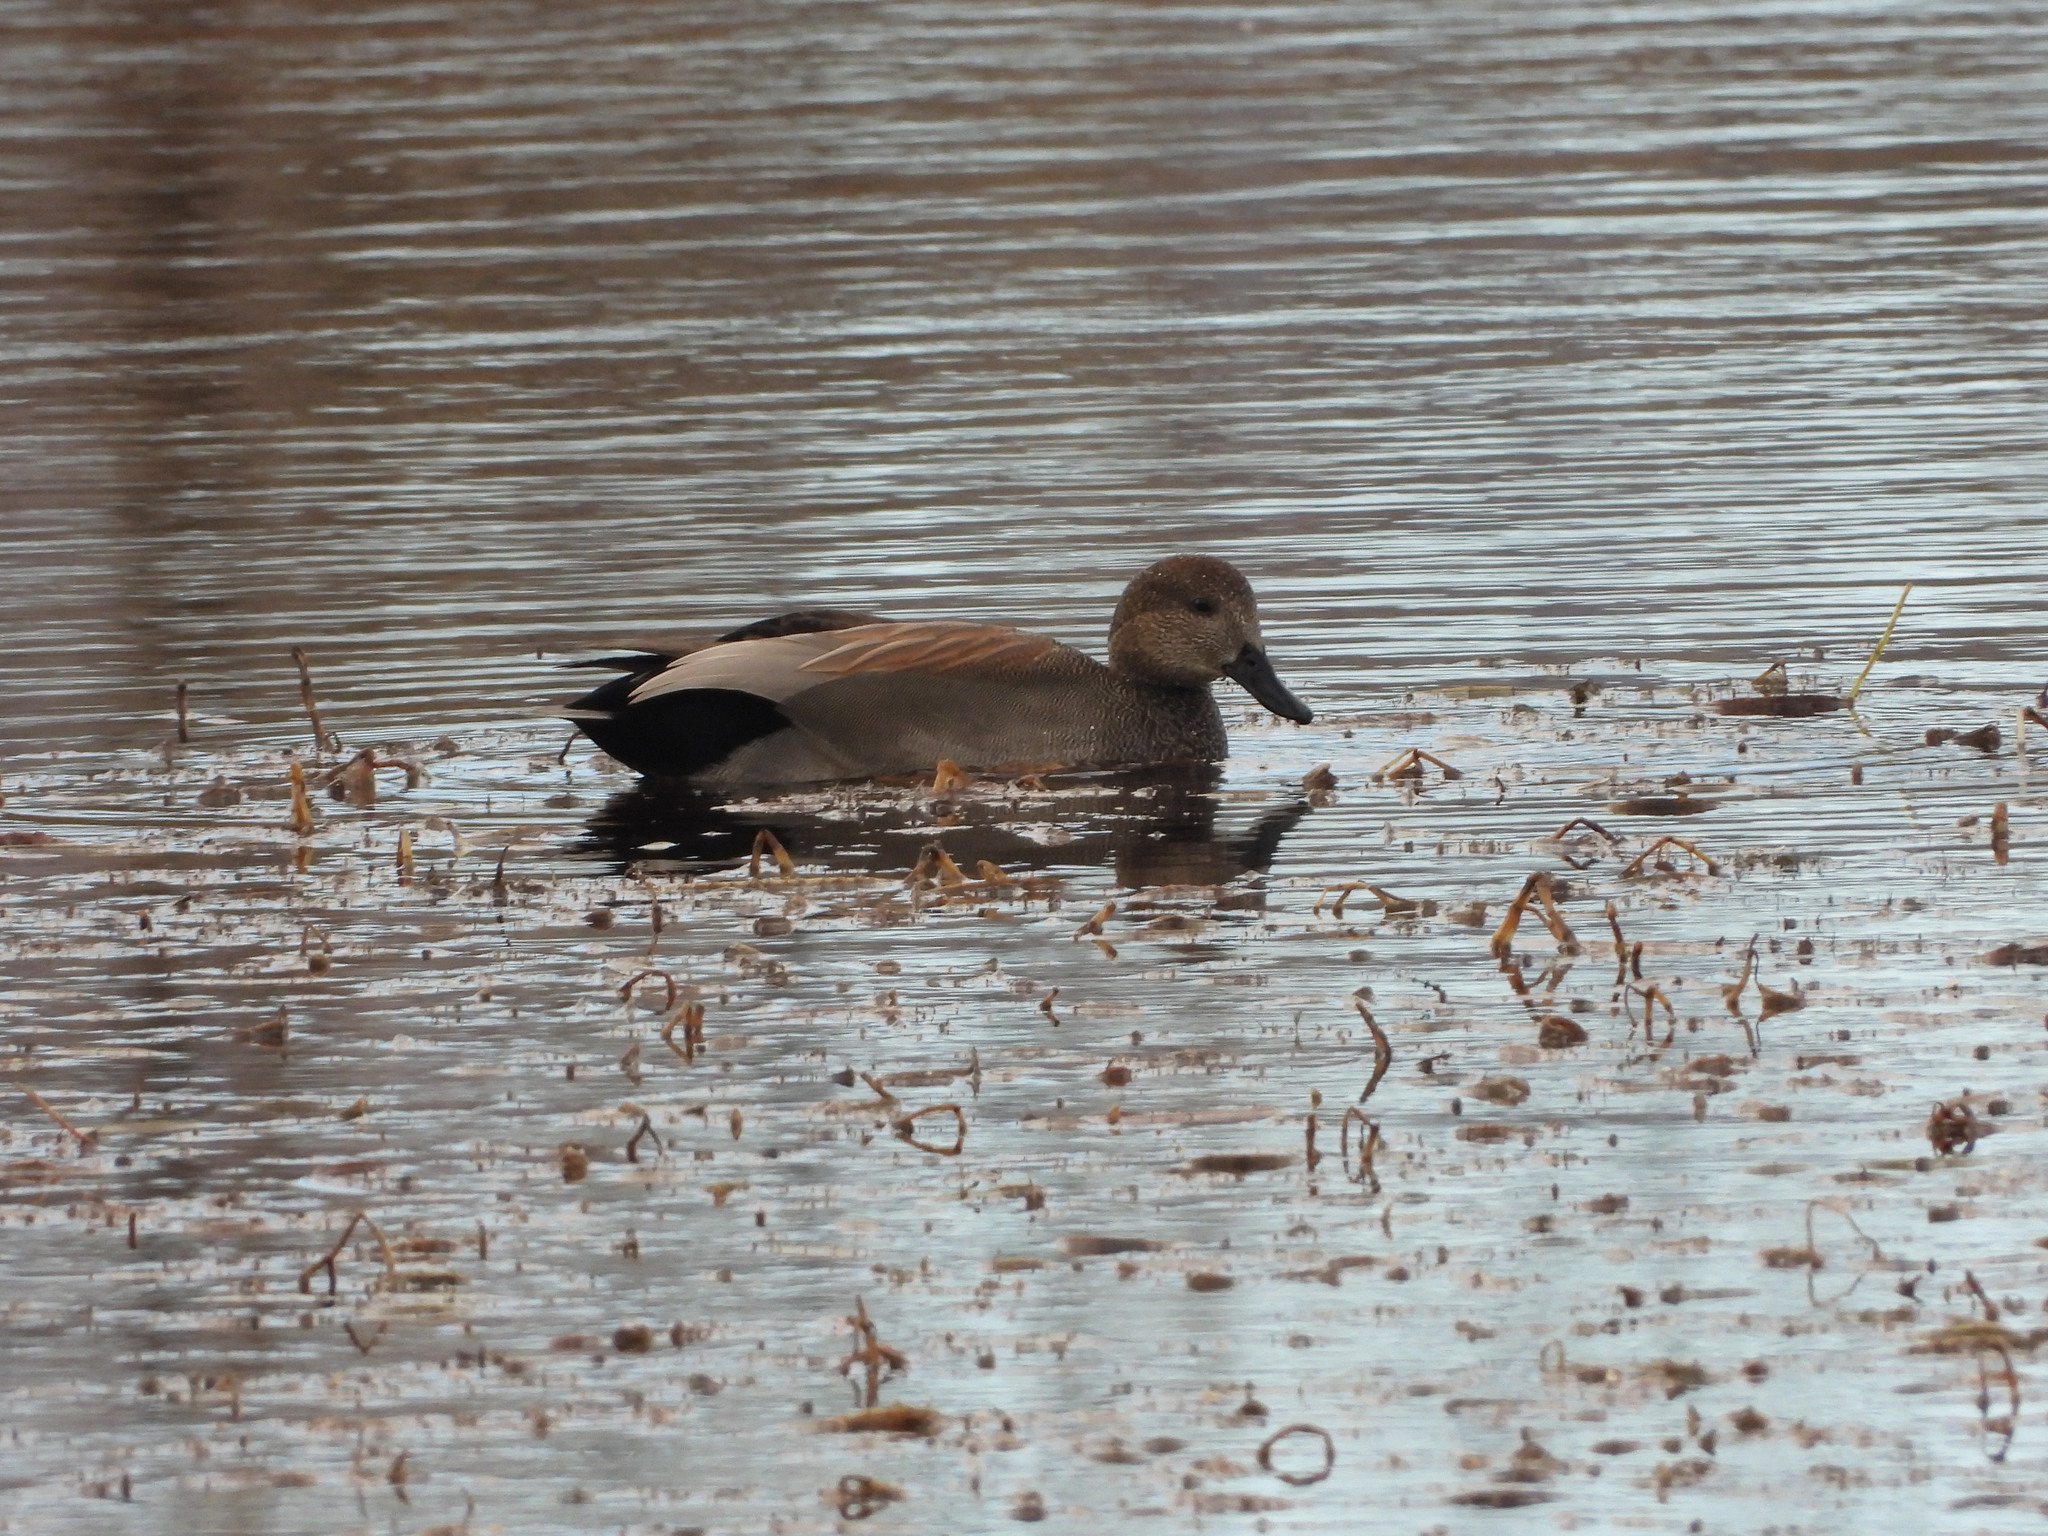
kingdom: Animalia
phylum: Chordata
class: Aves
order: Anseriformes
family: Anatidae
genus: Mareca
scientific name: Mareca strepera
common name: Gadwall
